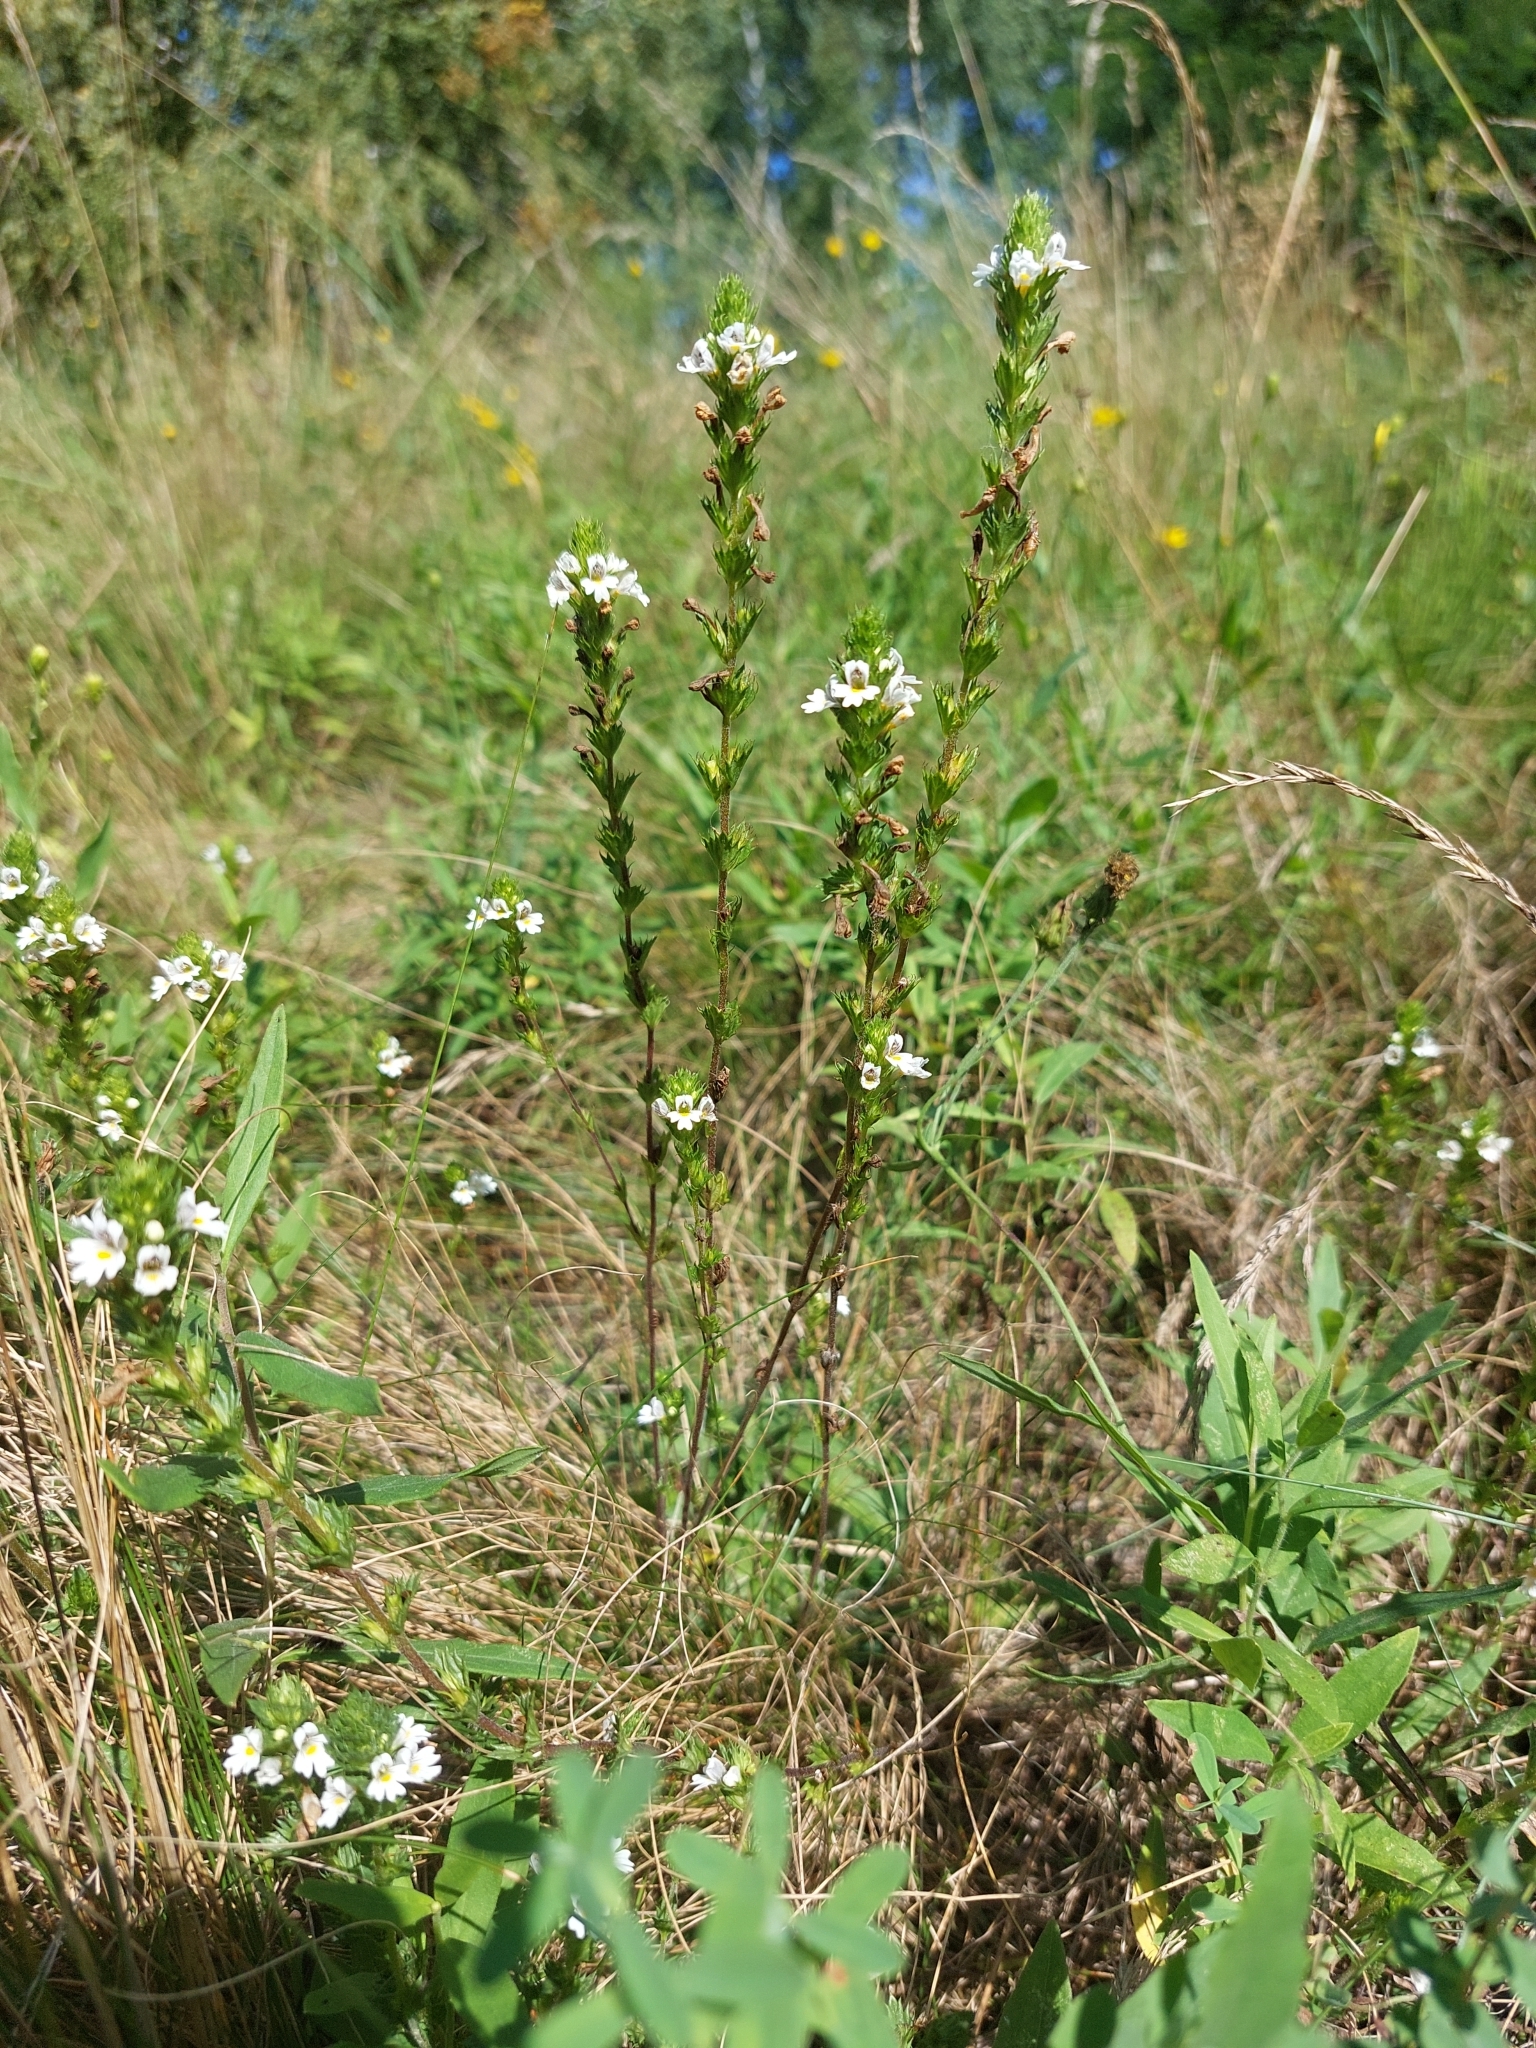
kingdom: Plantae
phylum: Tracheophyta
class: Magnoliopsida
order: Lamiales
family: Orobanchaceae
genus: Euphrasia
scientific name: Euphrasia stricta
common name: Drug eyebright
